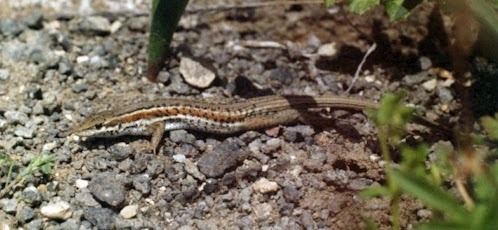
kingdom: Animalia
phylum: Chordata
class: Squamata
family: Lacertidae
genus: Ophisops
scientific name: Ophisops elegans
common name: Snake-eyed lizard
